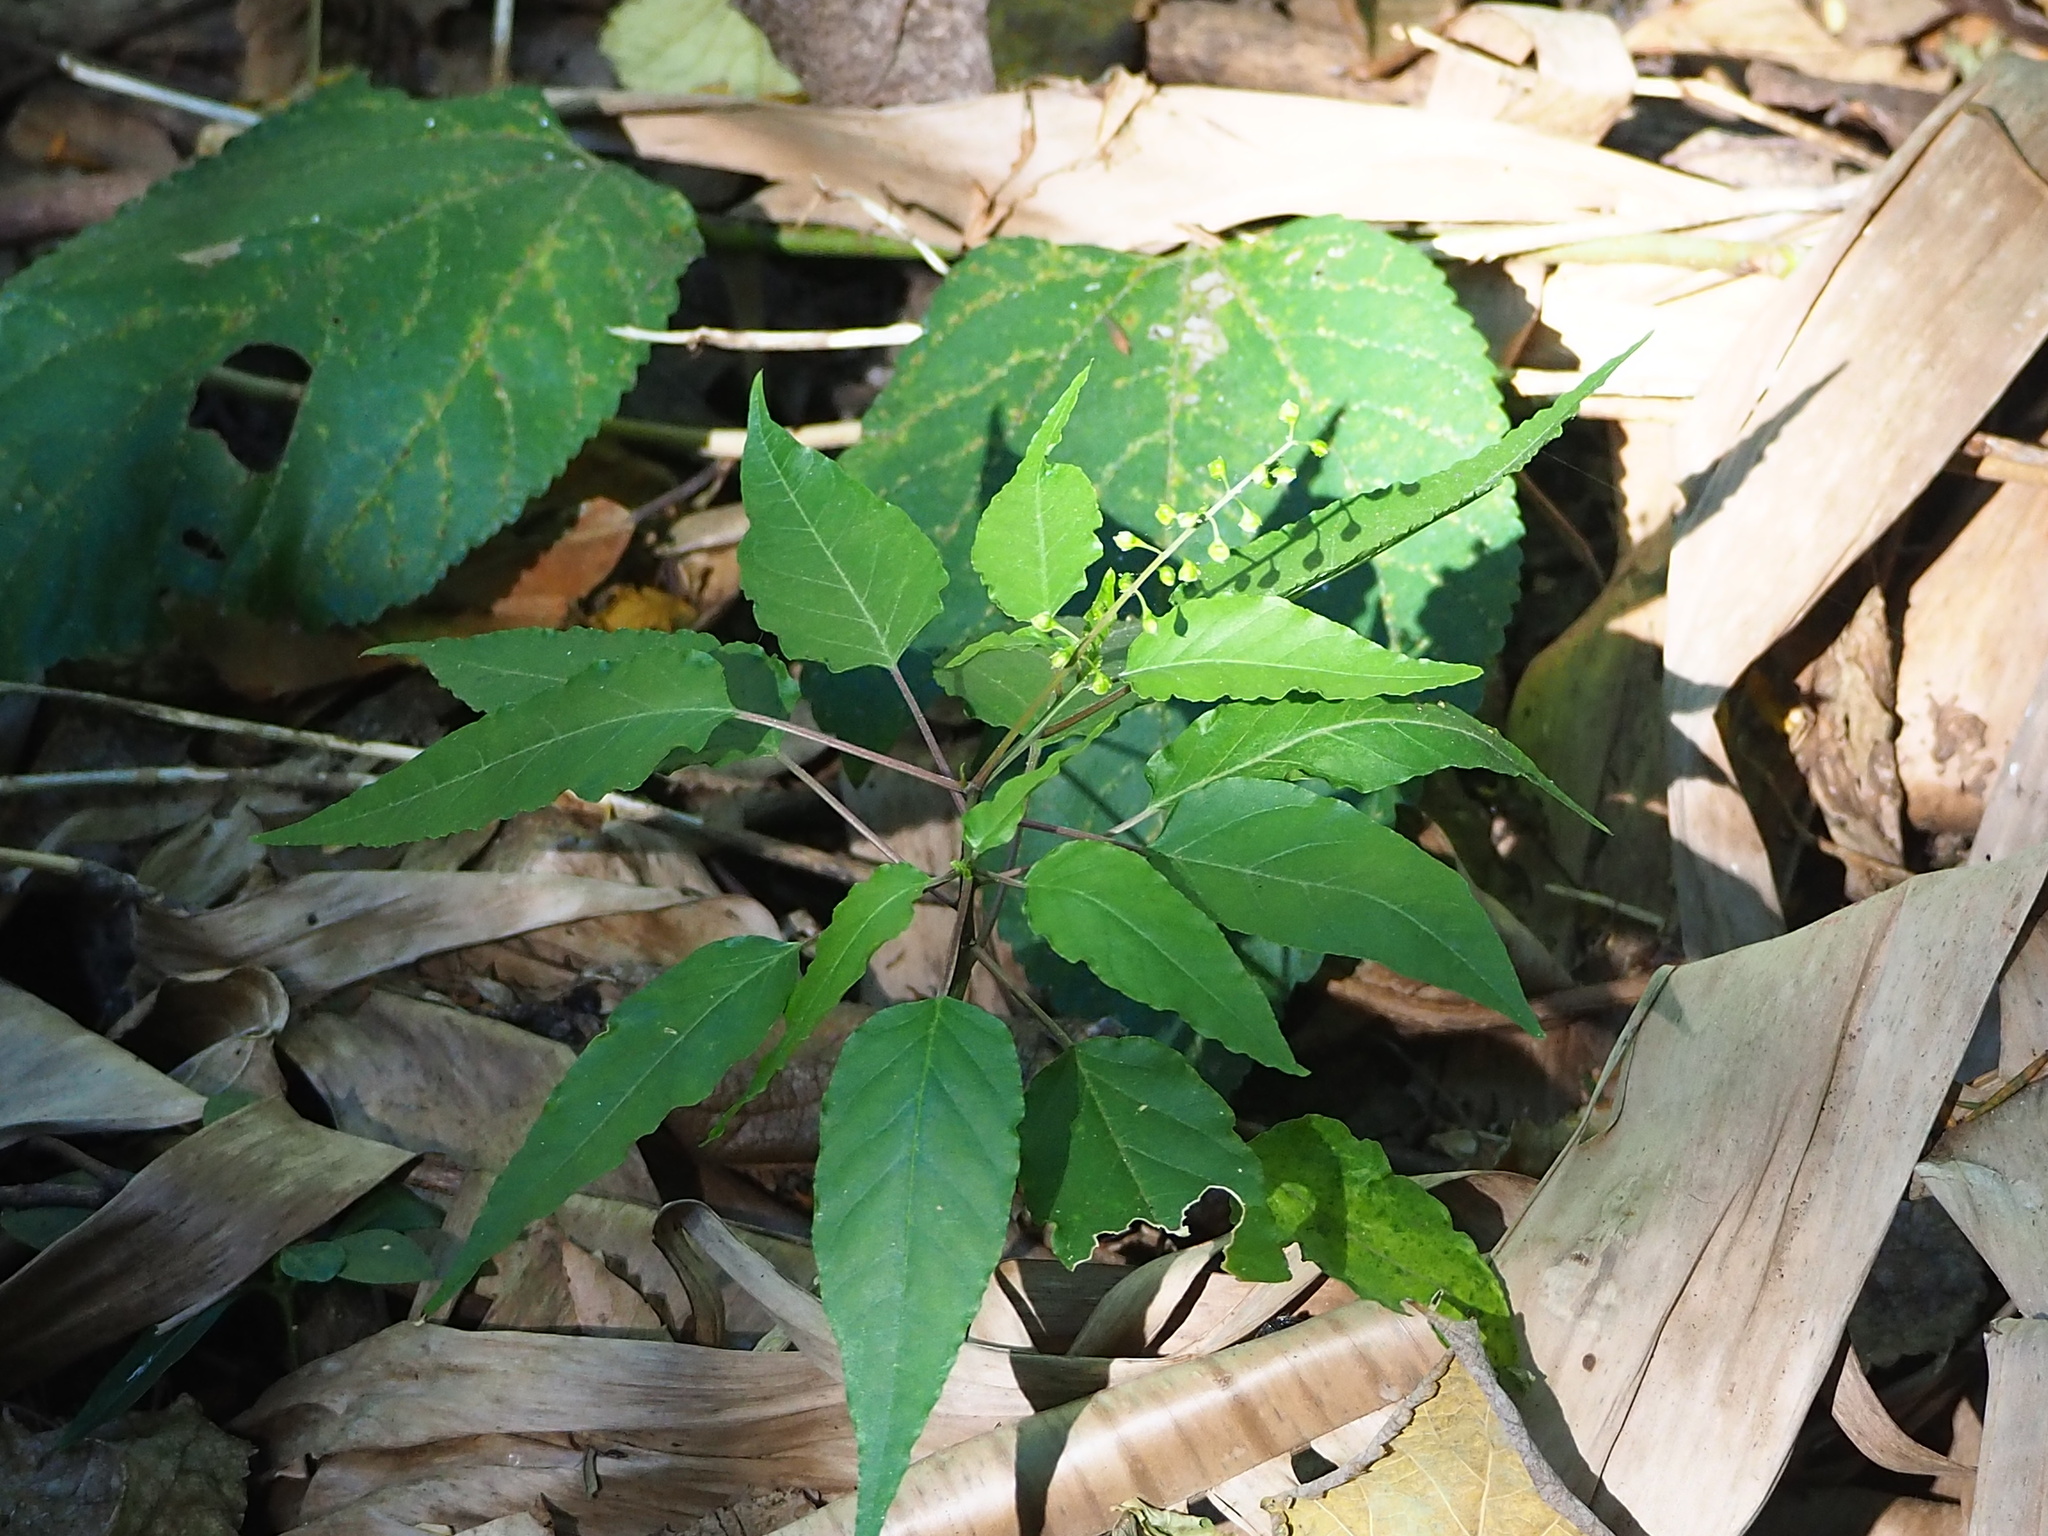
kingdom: Plantae
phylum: Tracheophyta
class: Magnoliopsida
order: Caryophyllales
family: Phytolaccaceae
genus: Rivina
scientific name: Rivina humilis
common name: Rougeplant
